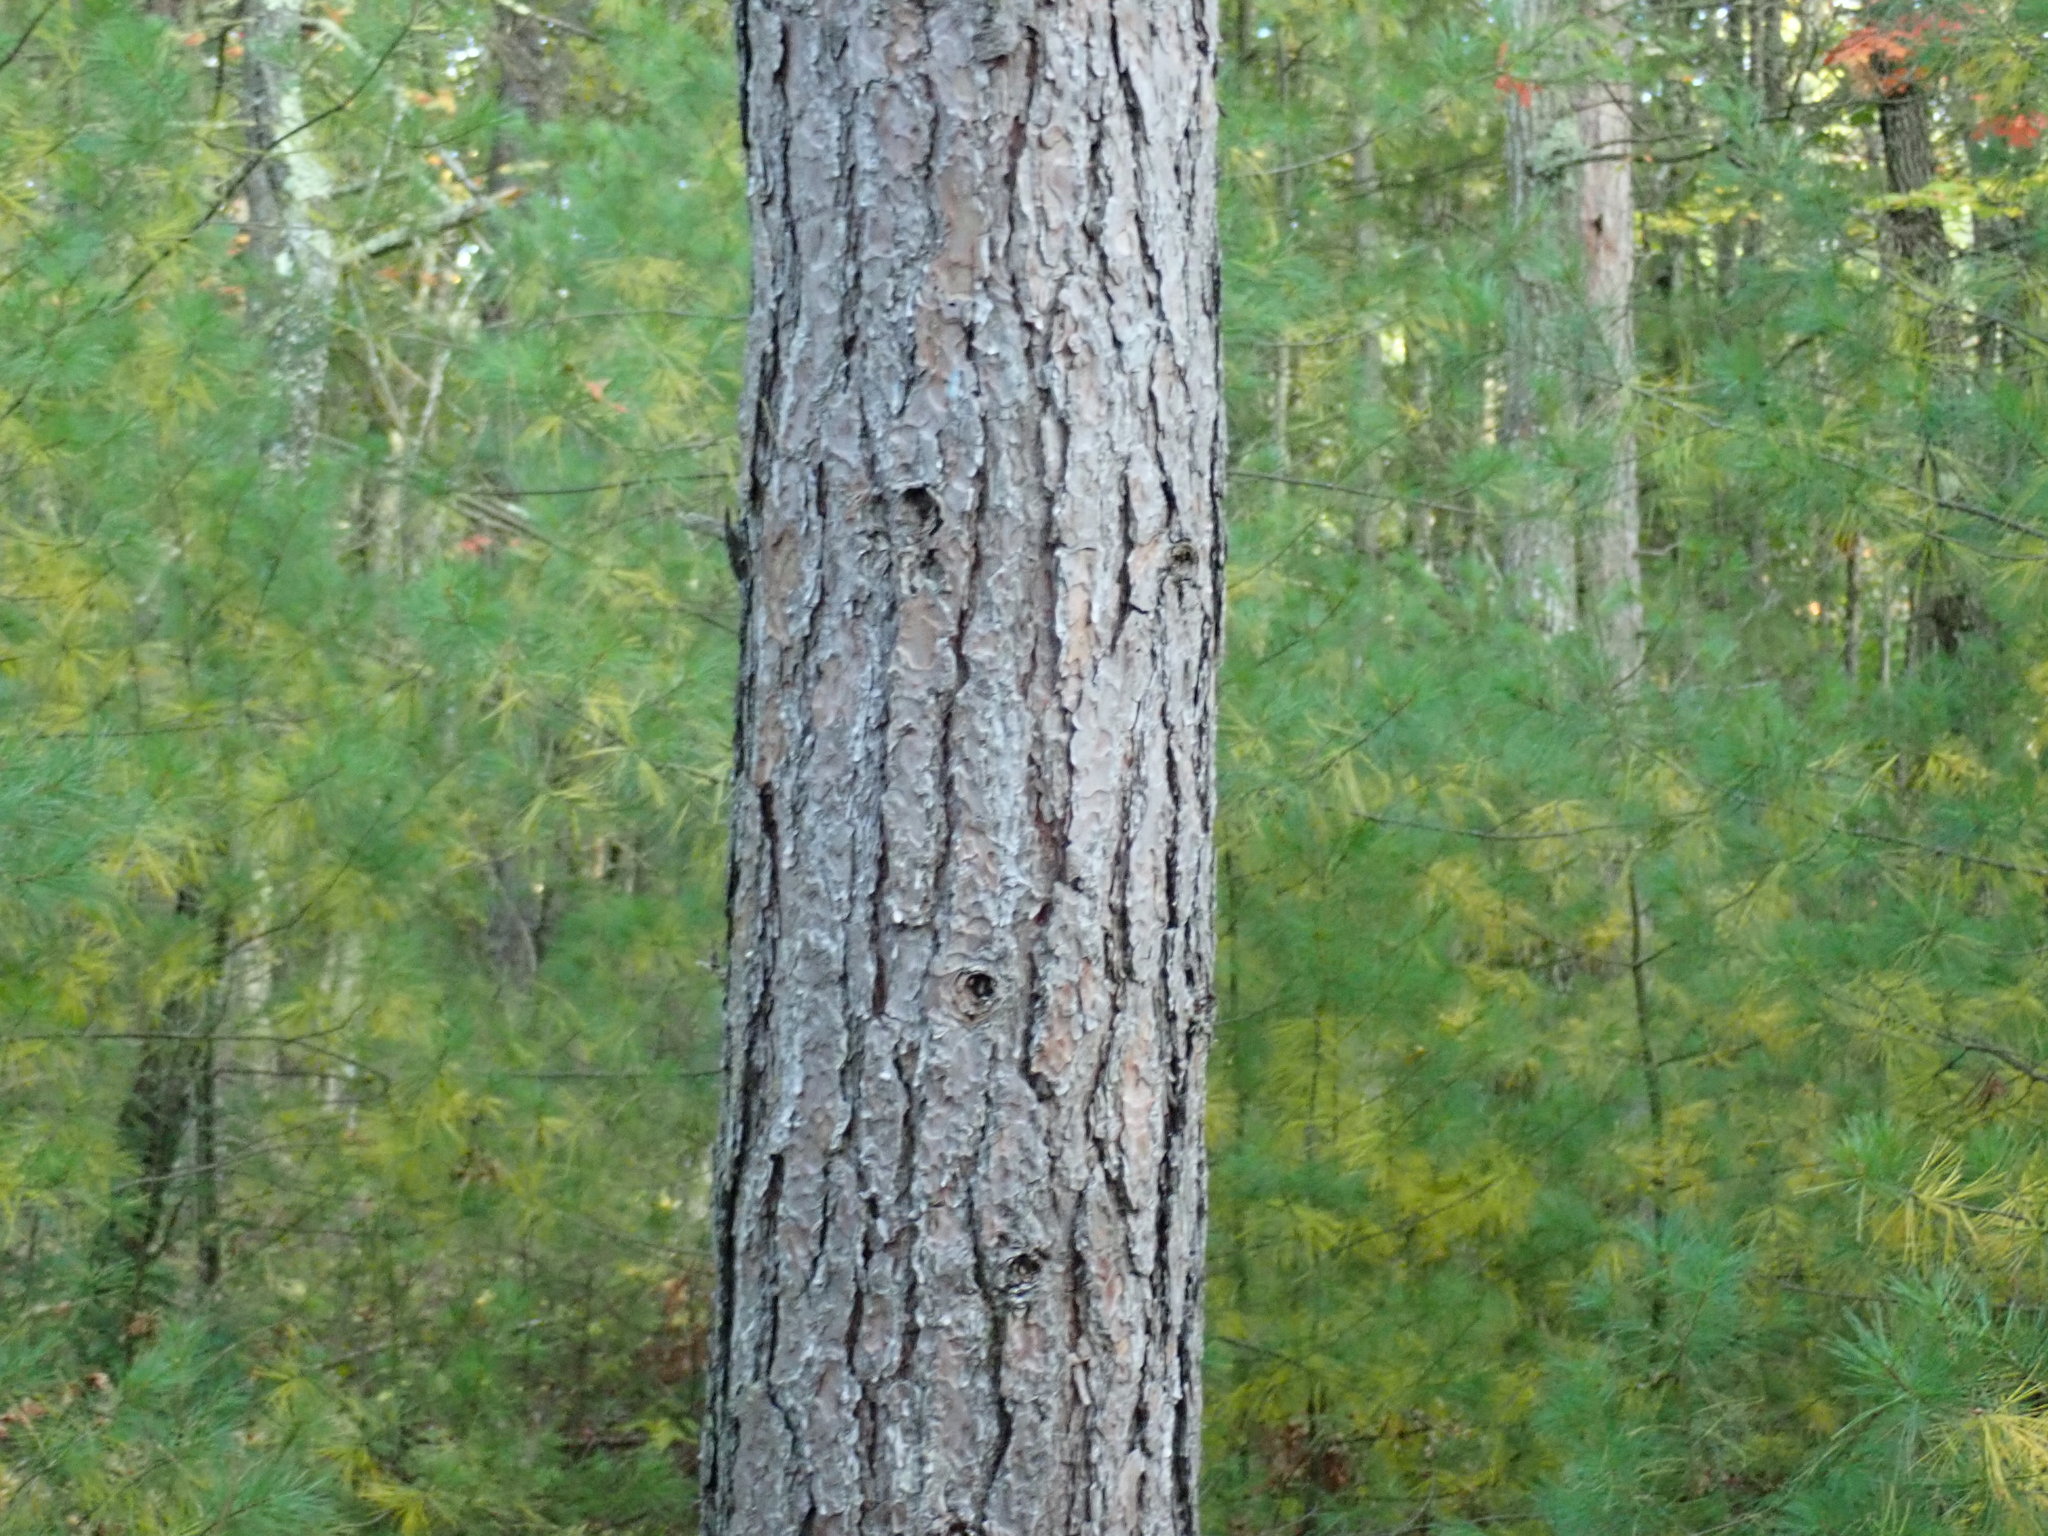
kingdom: Plantae
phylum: Tracheophyta
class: Pinopsida
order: Pinales
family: Pinaceae
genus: Pinus
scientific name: Pinus resinosa
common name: Norway pine
